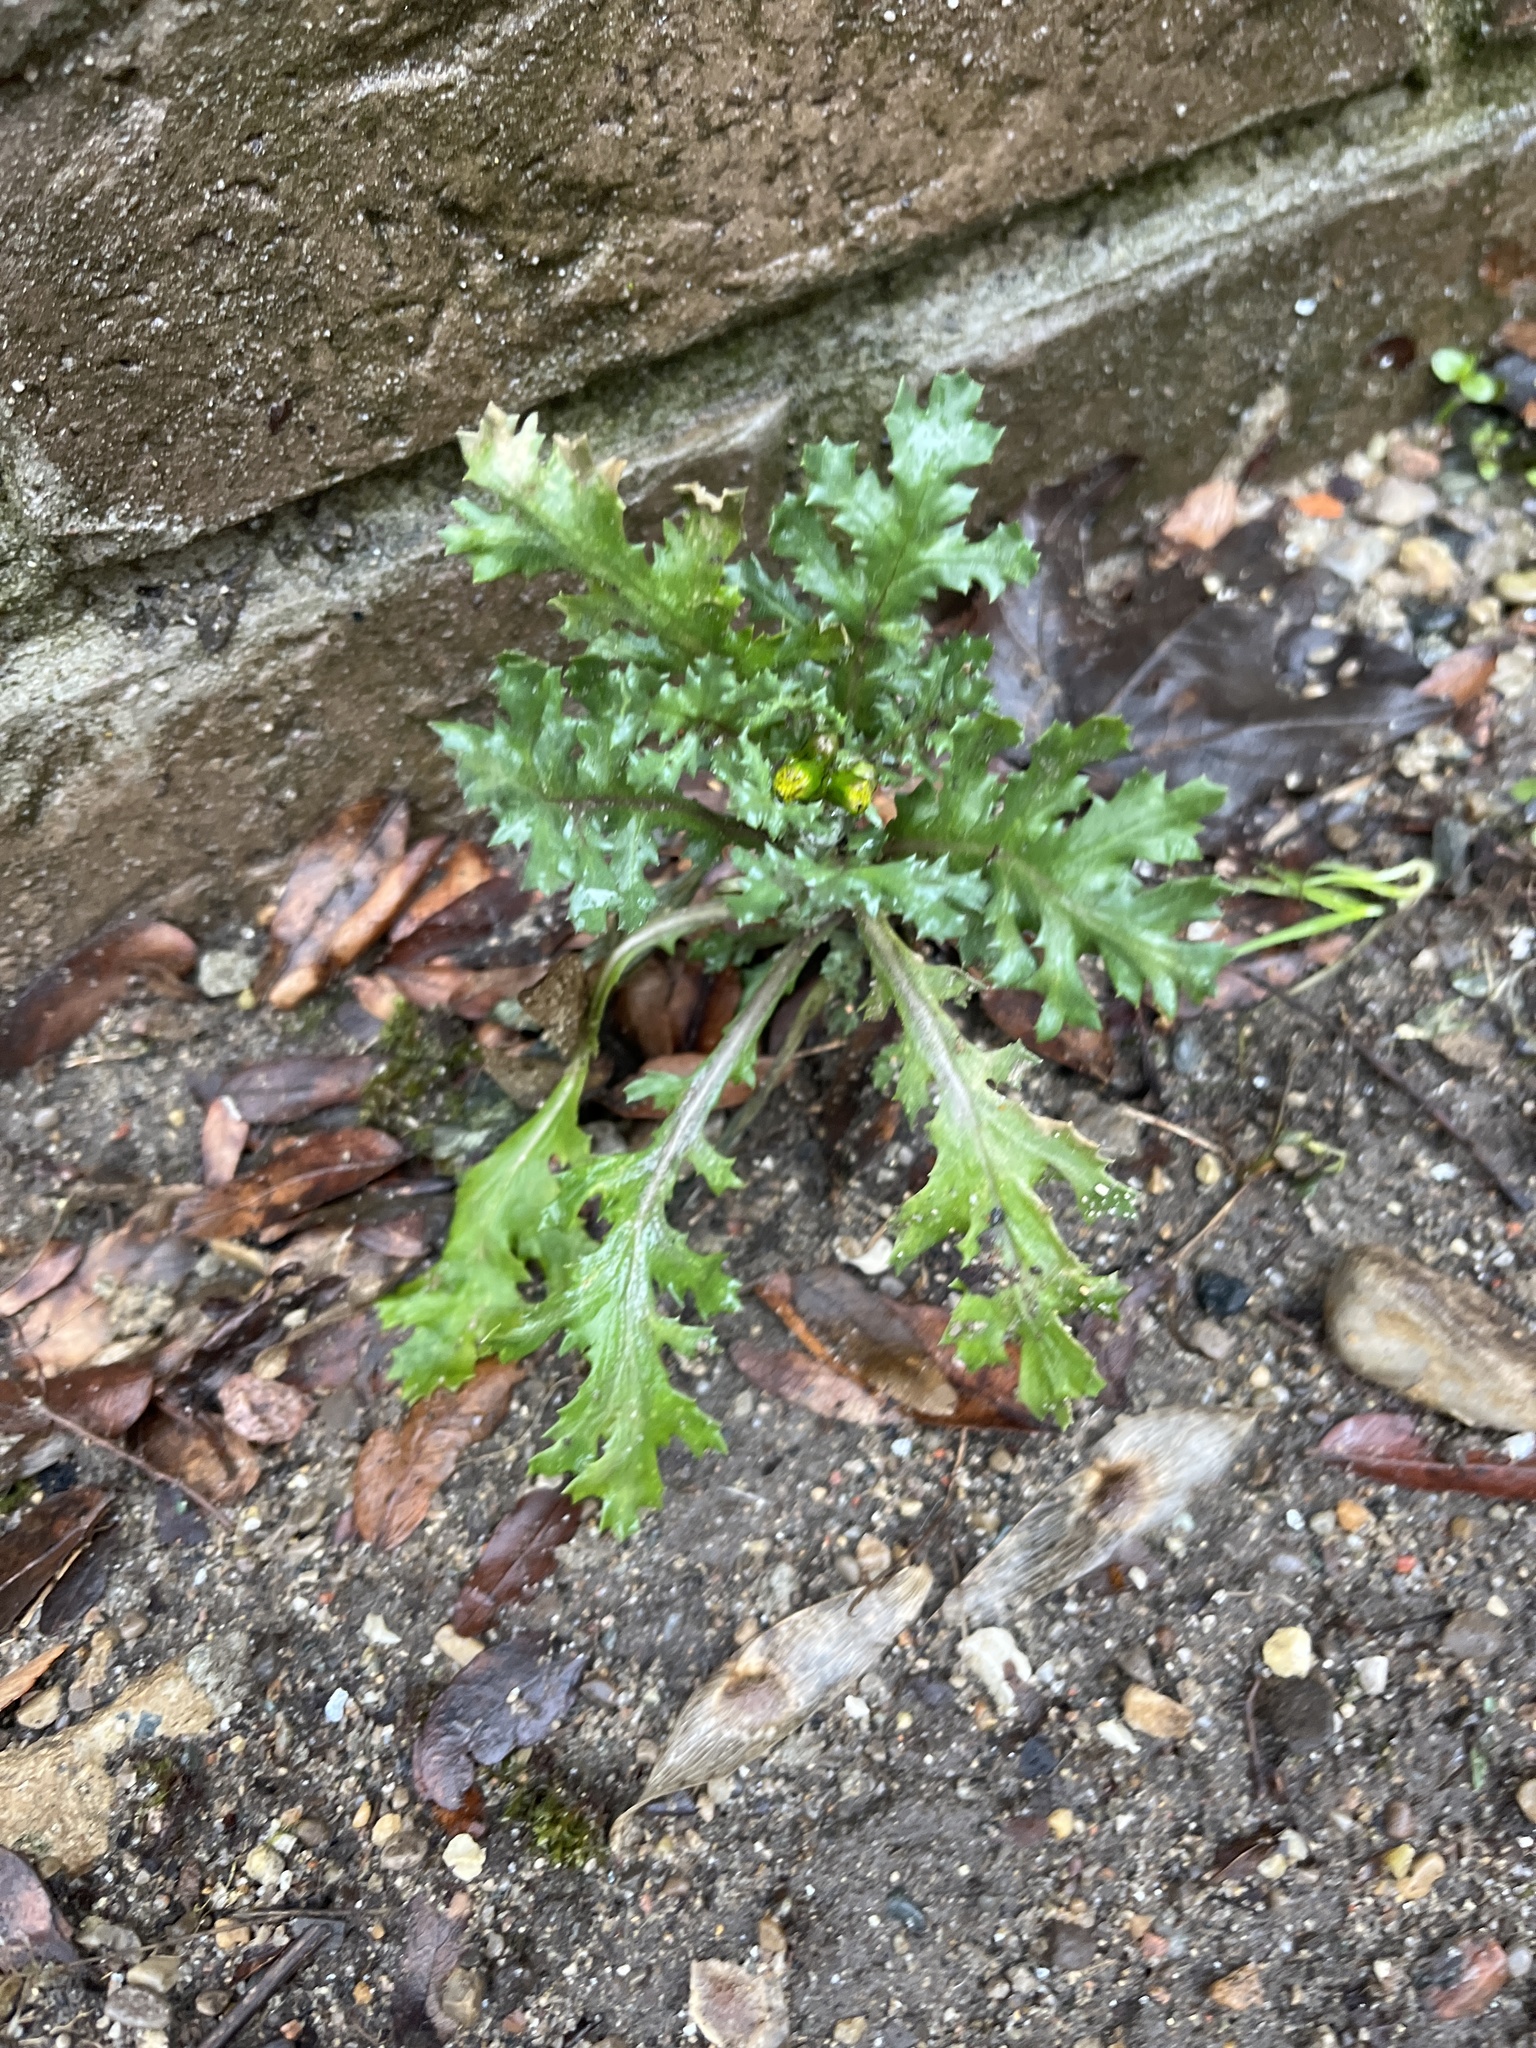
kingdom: Plantae
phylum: Tracheophyta
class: Magnoliopsida
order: Asterales
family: Asteraceae
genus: Senecio
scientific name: Senecio vulgaris
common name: Old-man-in-the-spring
